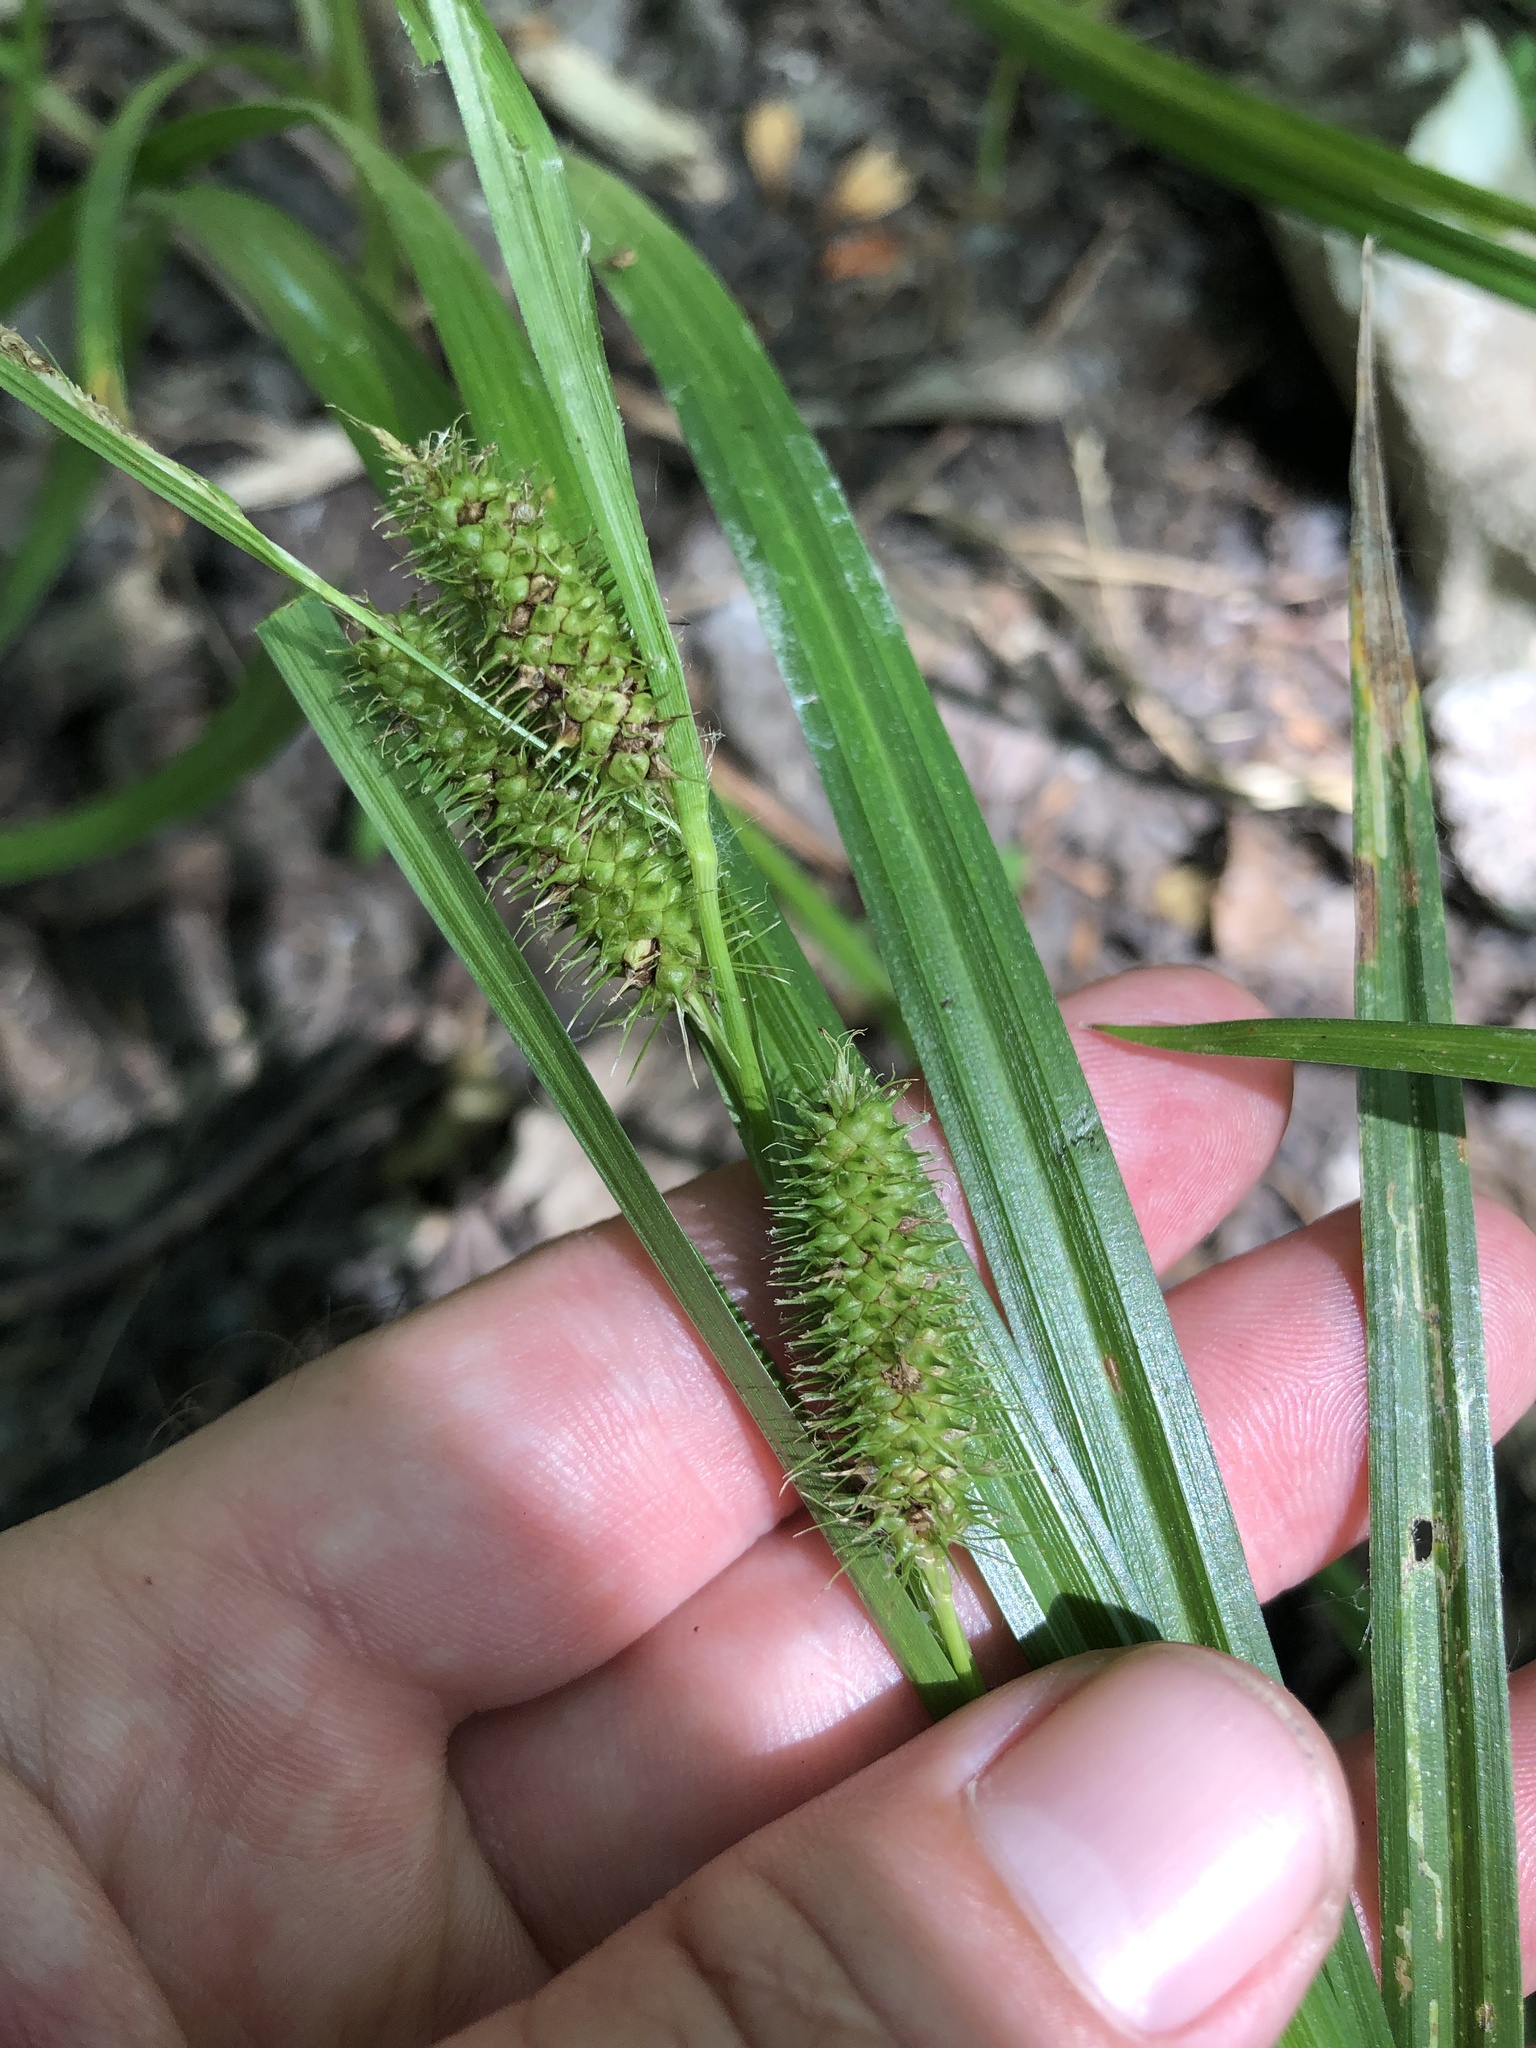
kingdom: Plantae
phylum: Tracheophyta
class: Liliopsida
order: Poales
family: Cyperaceae
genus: Carex
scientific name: Carex aureolensis
